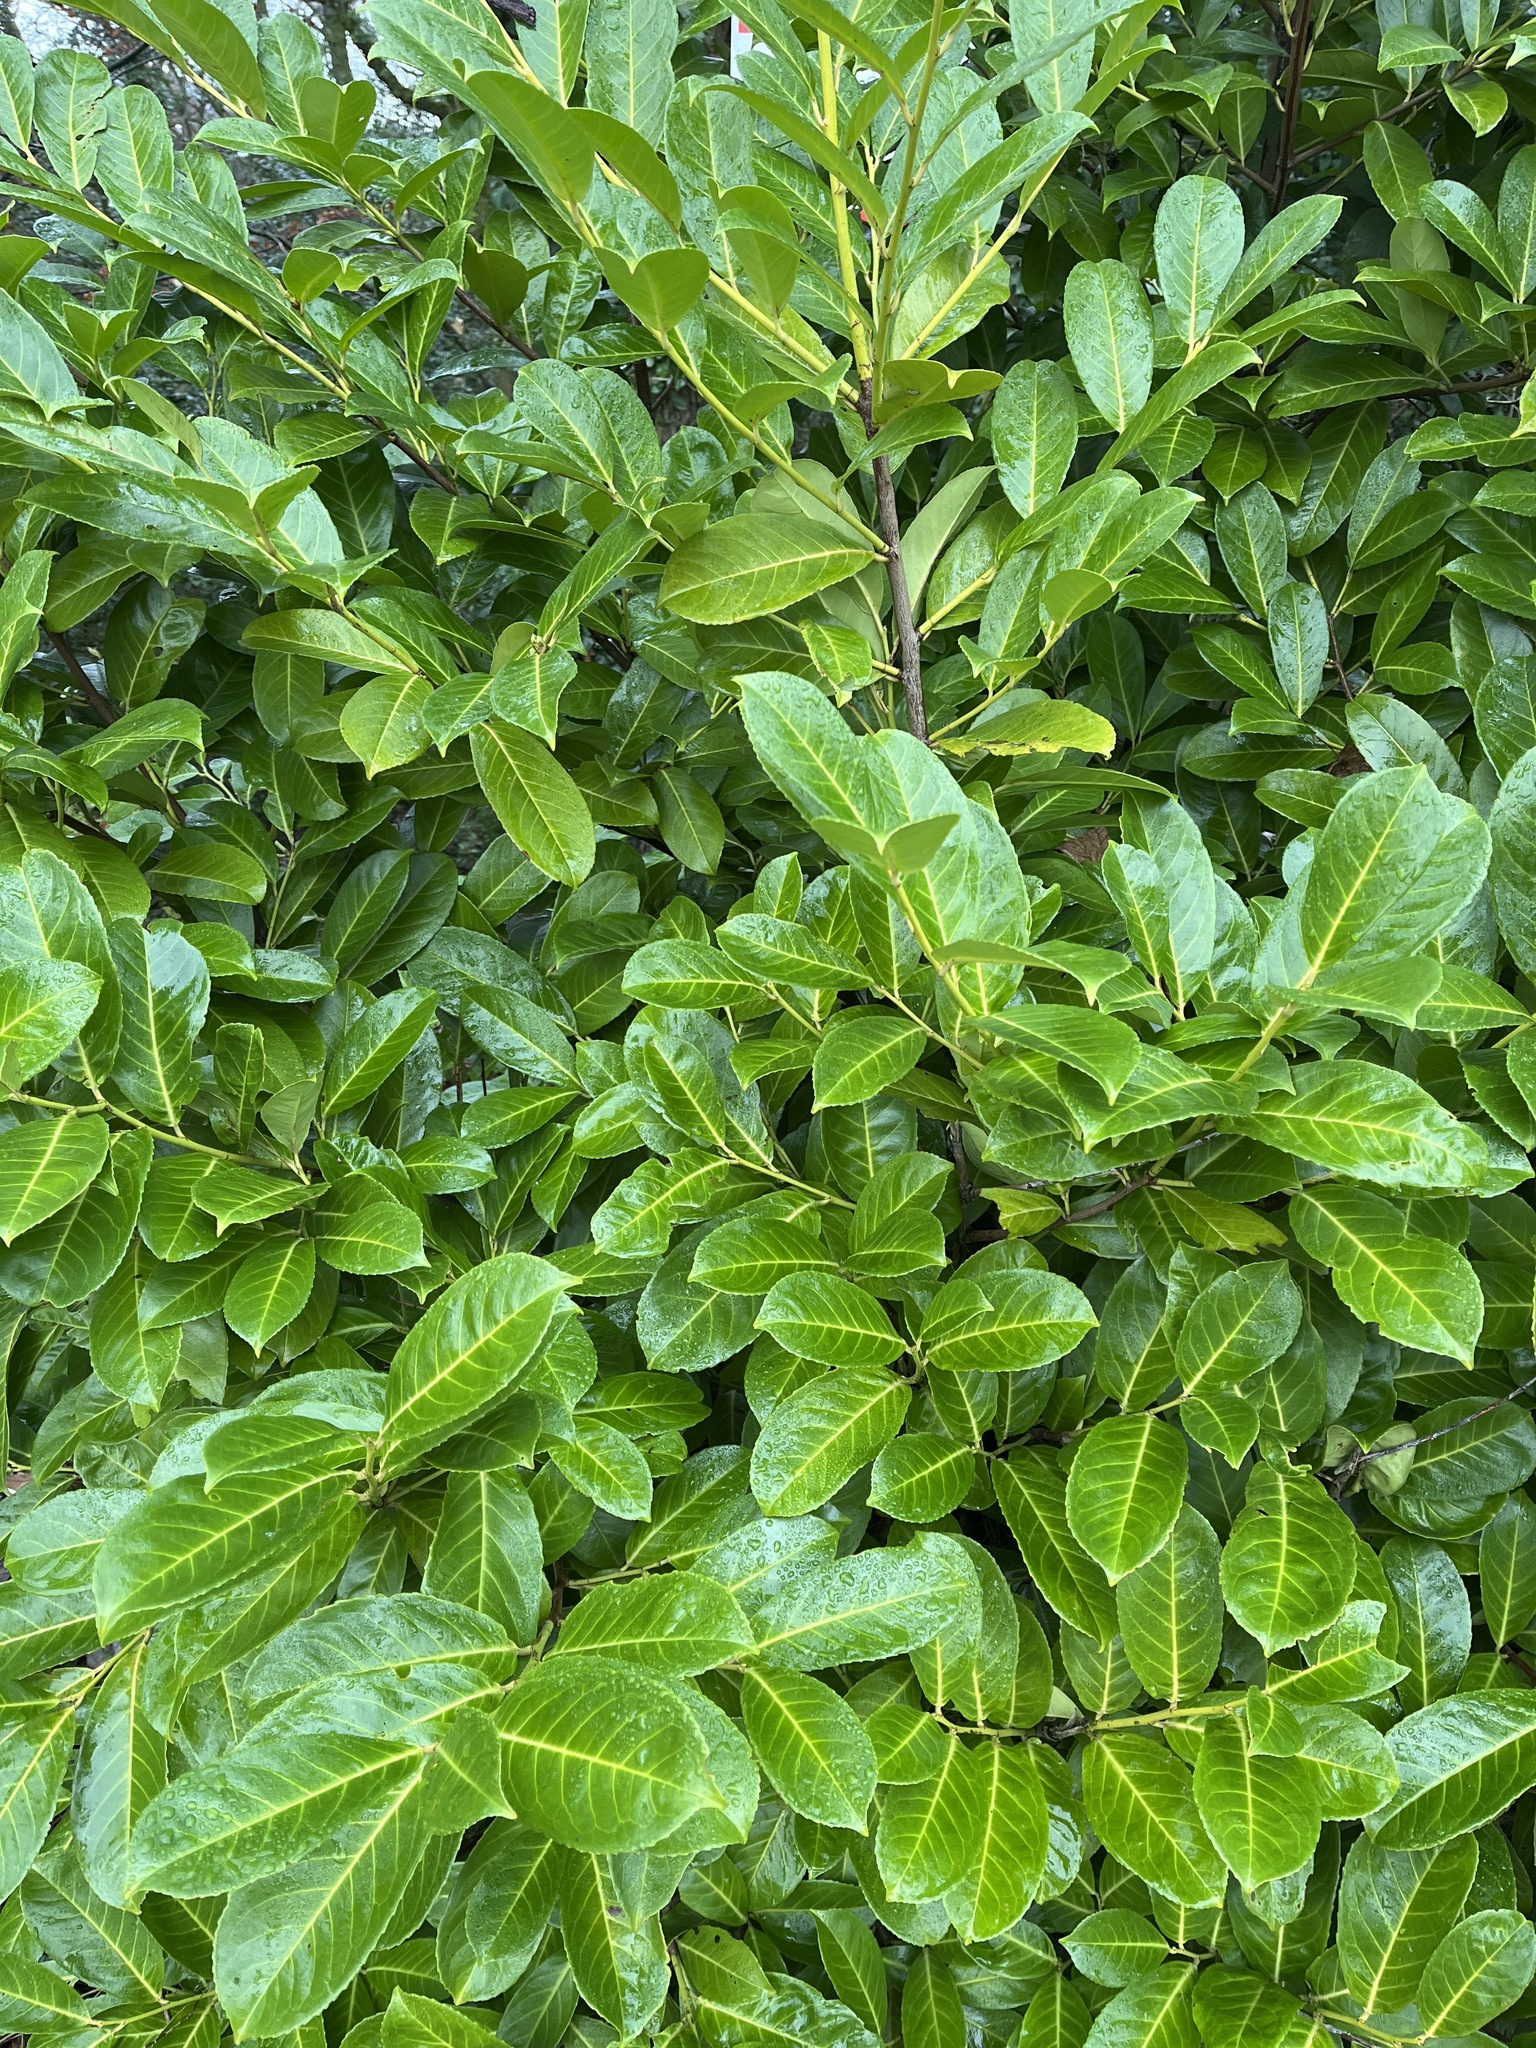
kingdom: Plantae
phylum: Tracheophyta
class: Magnoliopsida
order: Rosales
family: Rosaceae
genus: Prunus
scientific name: Prunus laurocerasus
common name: Cherry laurel
